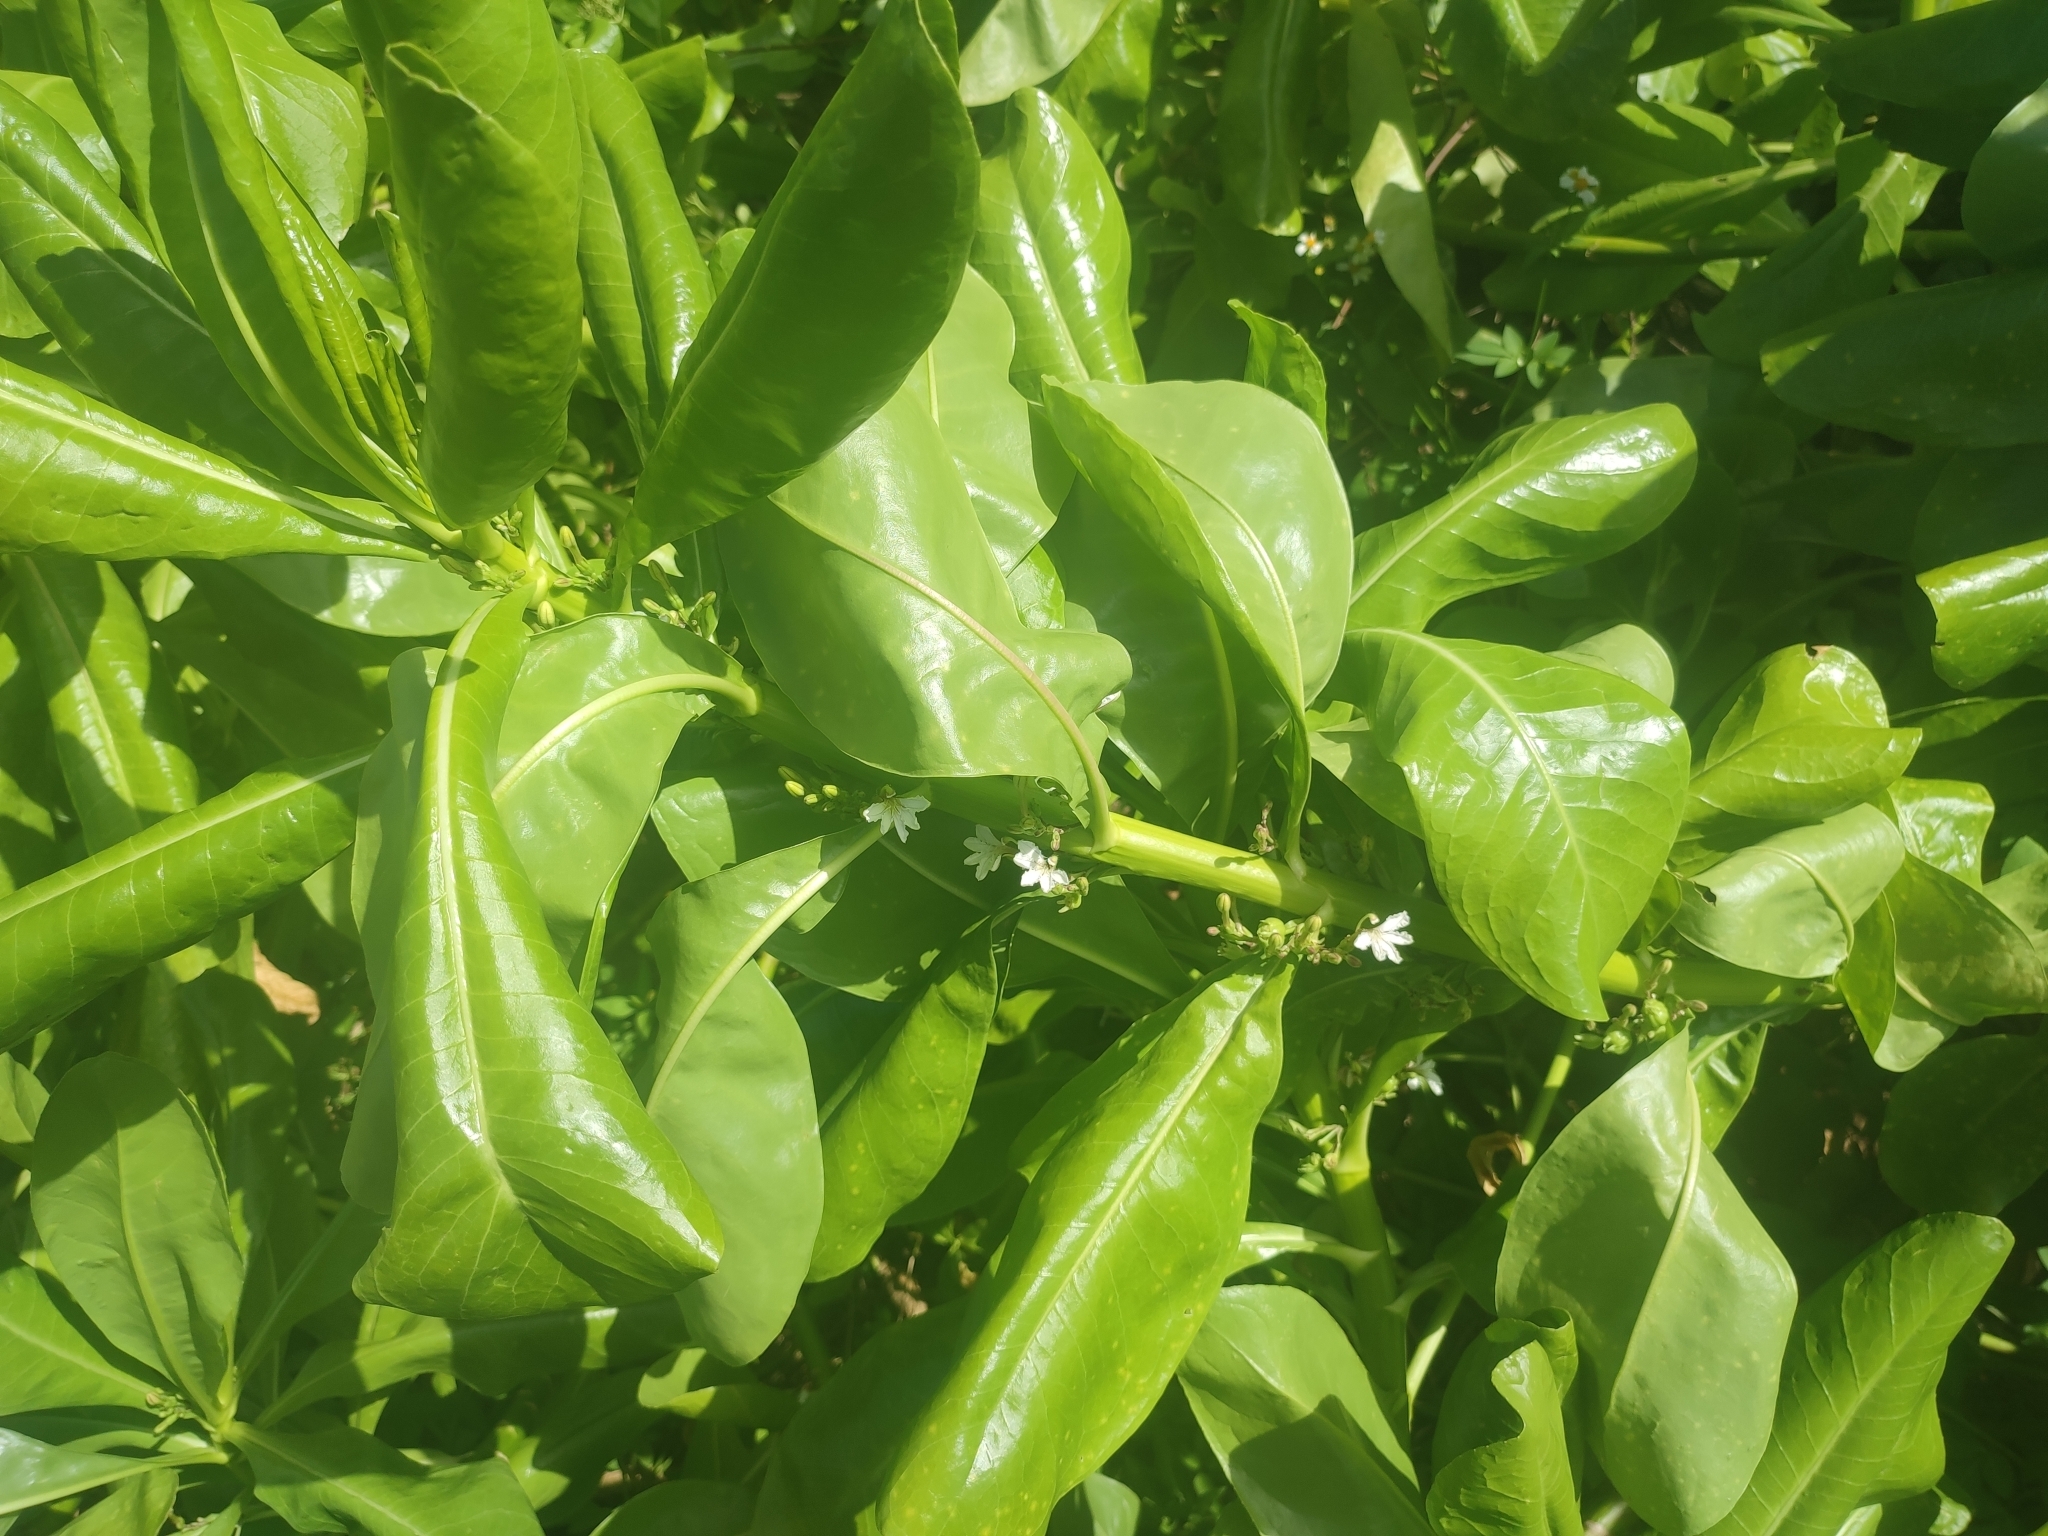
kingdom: Plantae
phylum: Tracheophyta
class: Magnoliopsida
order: Asterales
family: Goodeniaceae
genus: Scaevola
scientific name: Scaevola taccada
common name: Sea lettucetree
